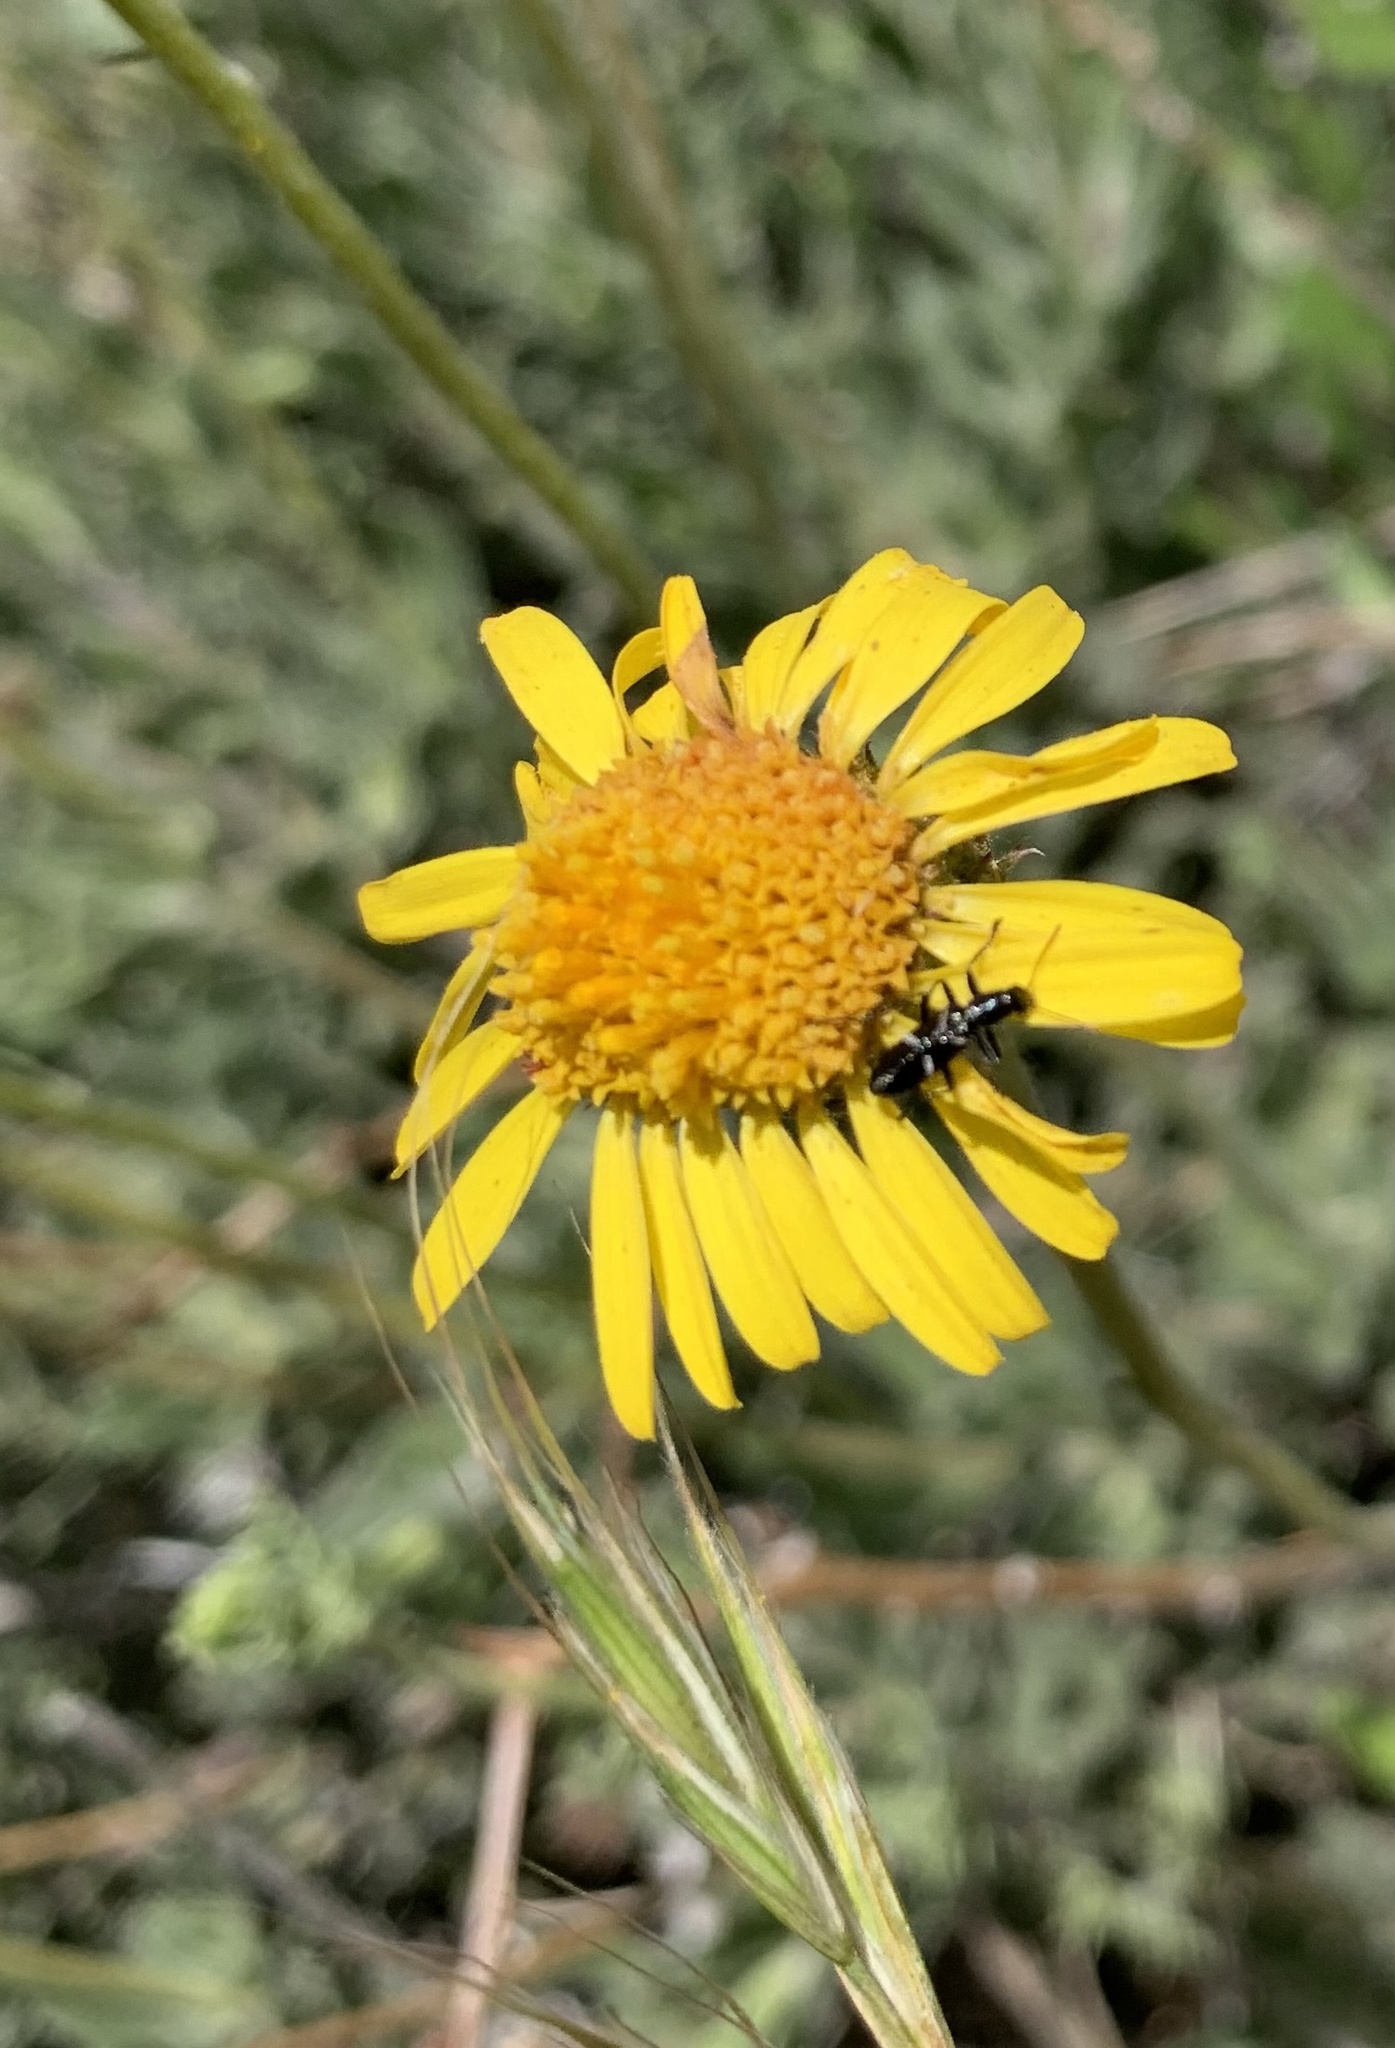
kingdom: Animalia
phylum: Arthropoda
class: Insecta
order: Coleoptera
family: Cleridae
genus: Epiclines
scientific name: Epiclines
